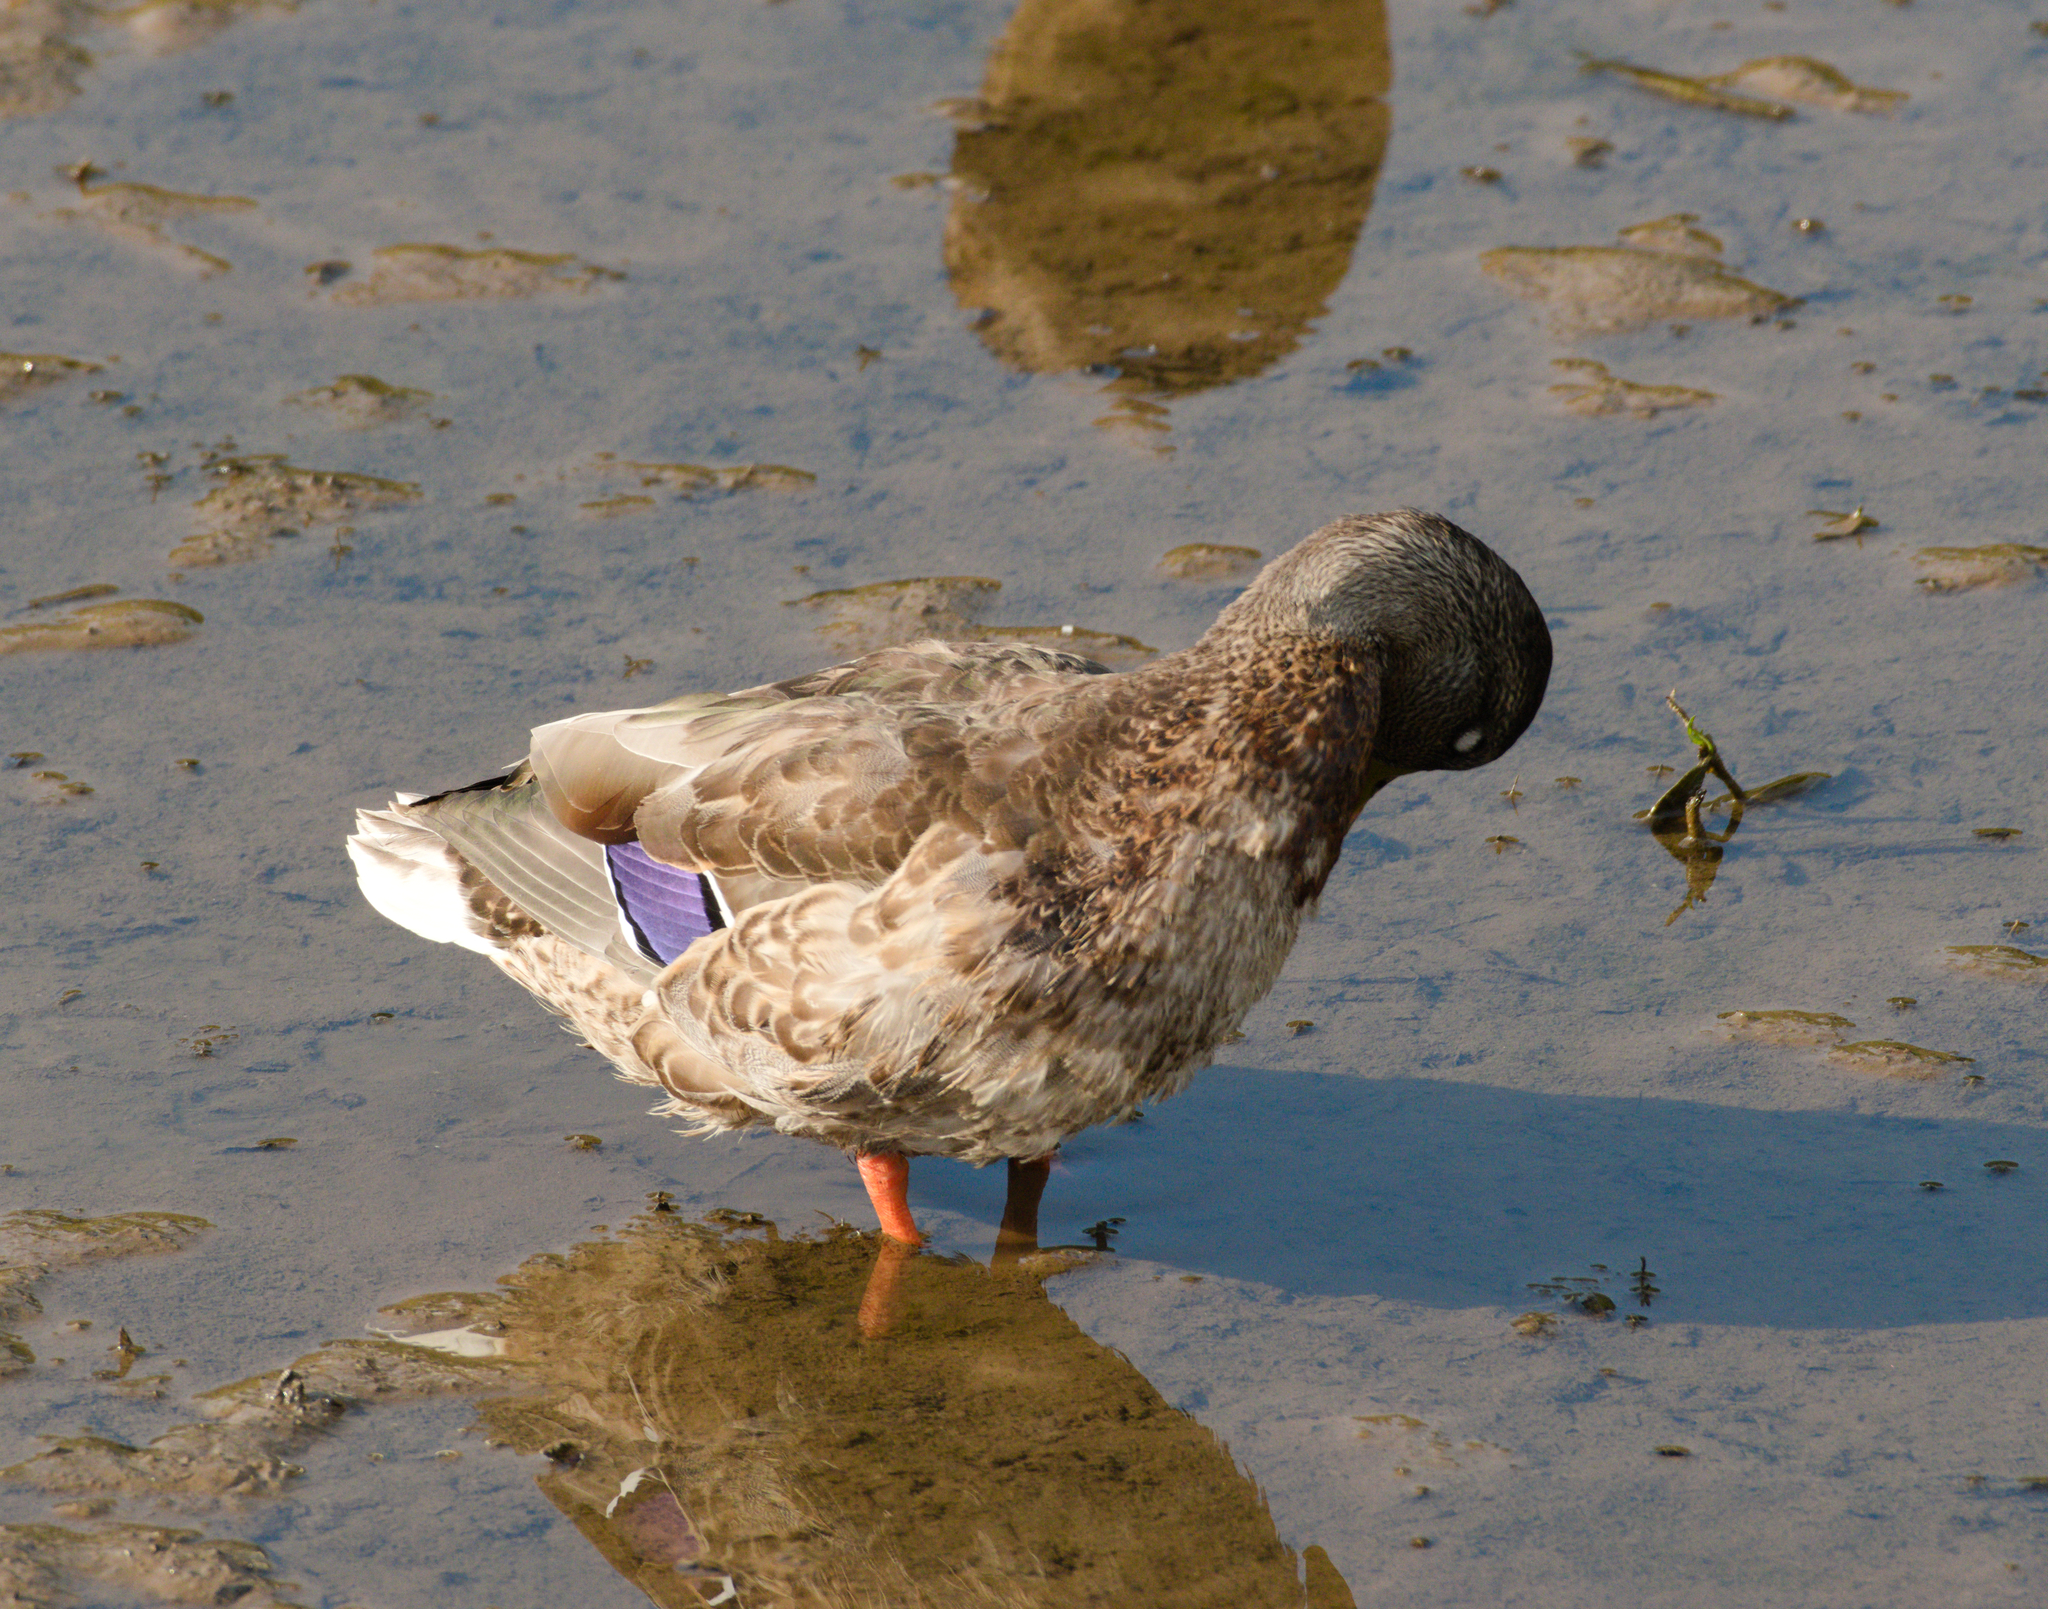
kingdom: Animalia
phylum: Chordata
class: Aves
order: Anseriformes
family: Anatidae
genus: Anas
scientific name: Anas platyrhynchos
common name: Mallard
